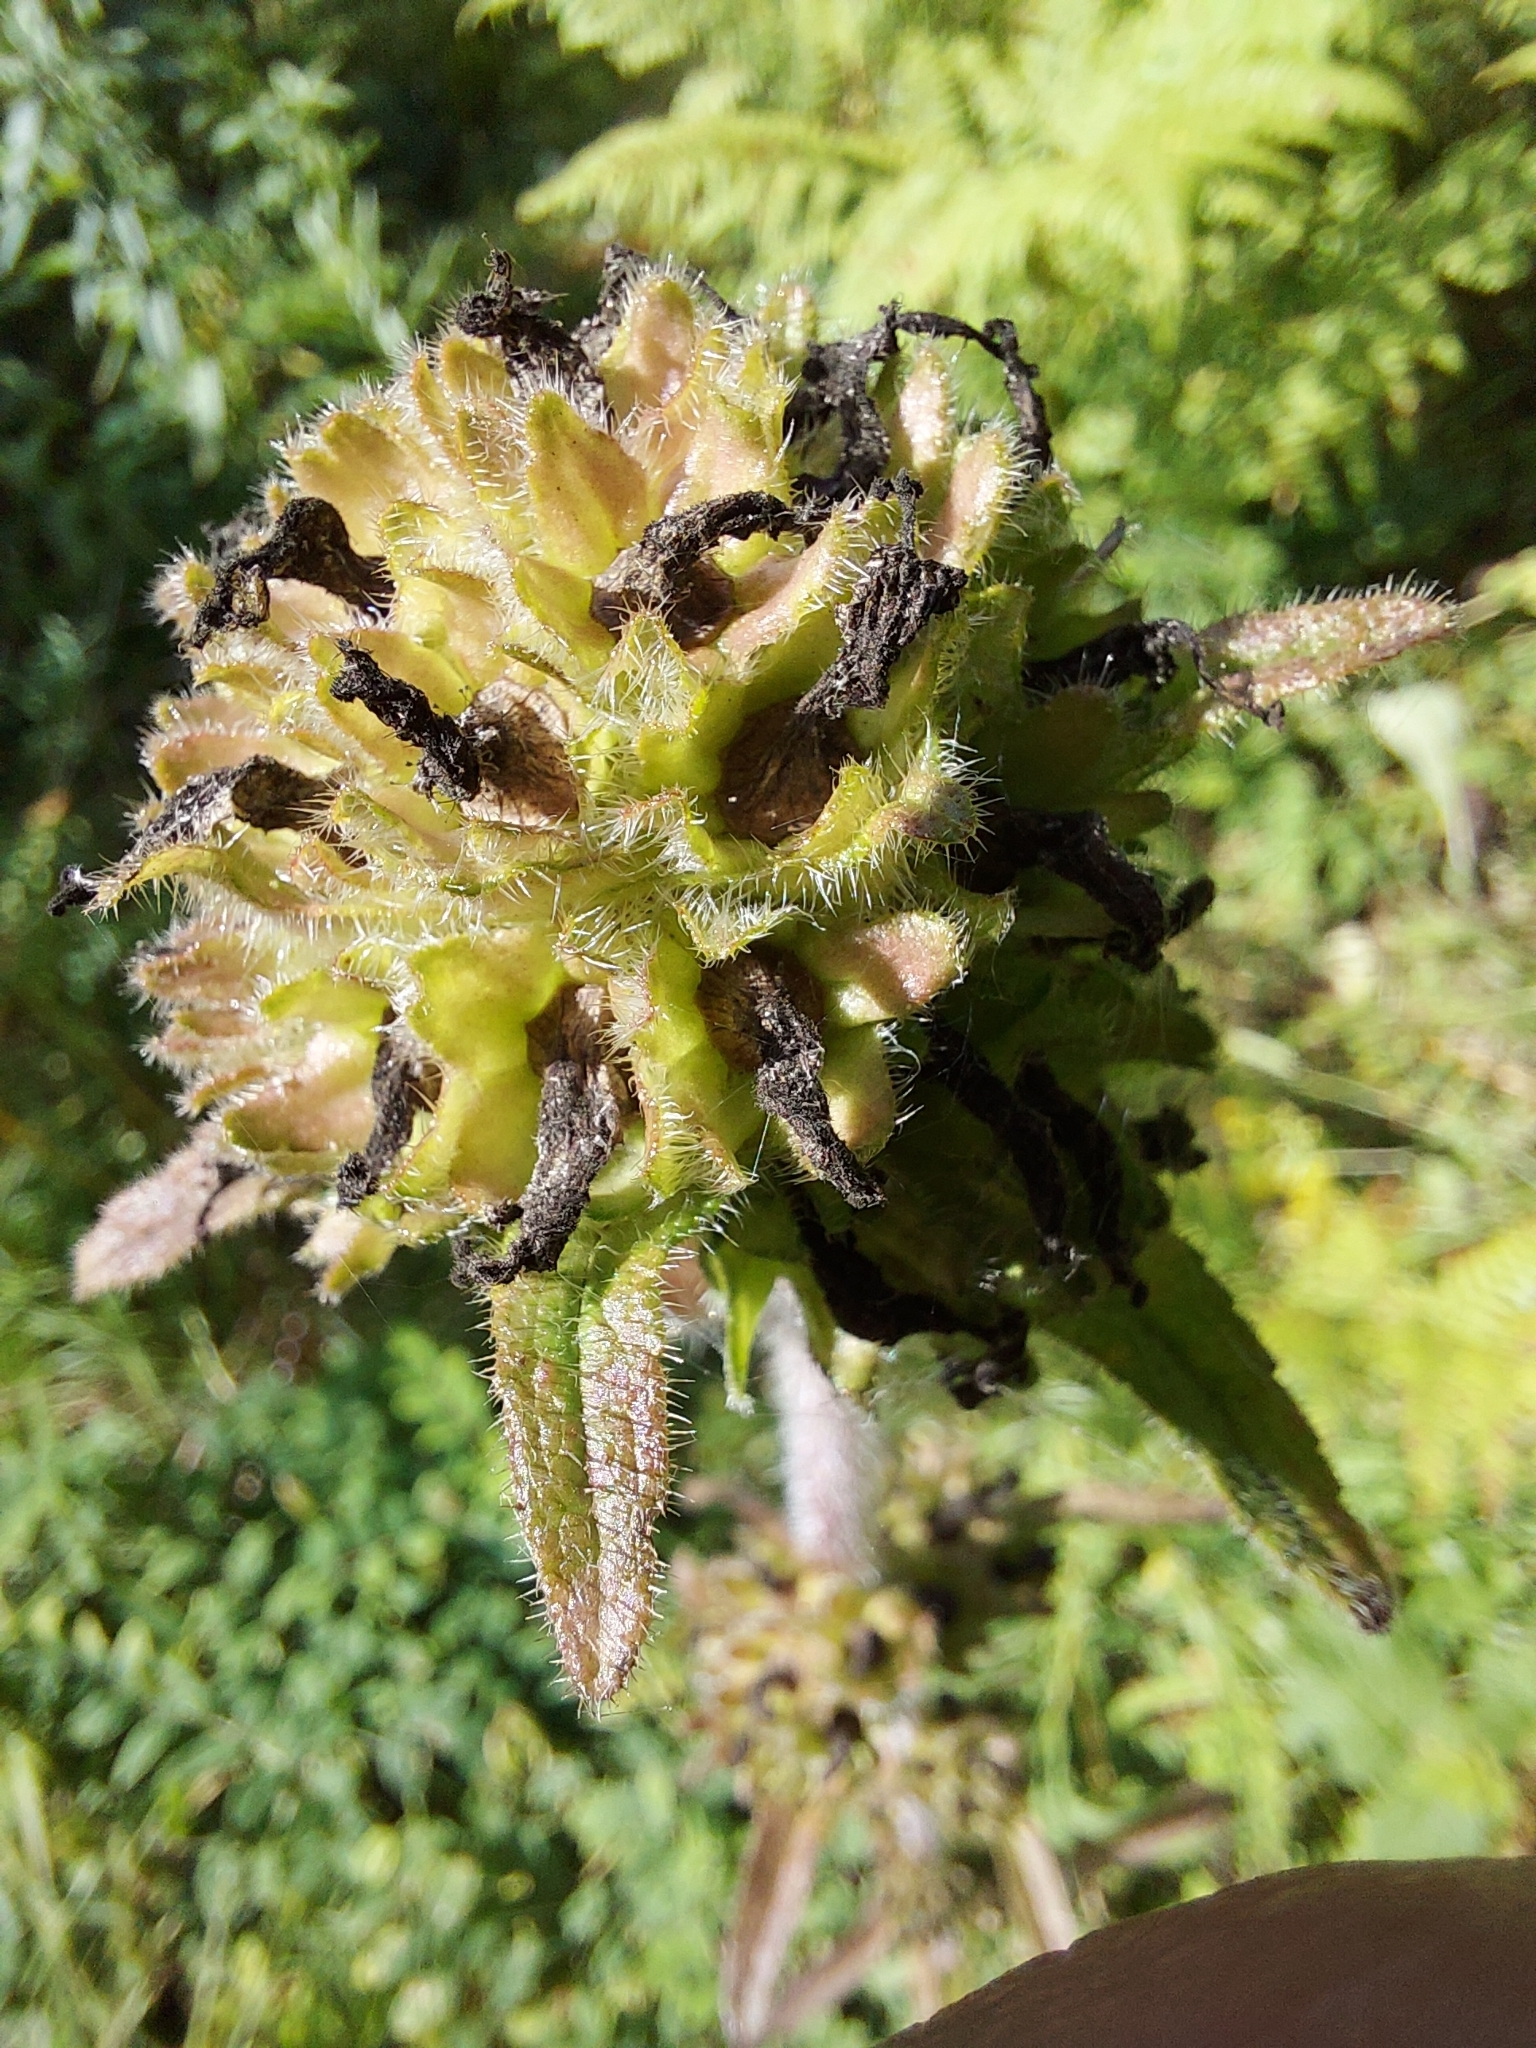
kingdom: Plantae
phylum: Tracheophyta
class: Magnoliopsida
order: Asterales
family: Campanulaceae
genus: Campanula
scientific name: Campanula cervicaria
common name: Bristly bellflower
